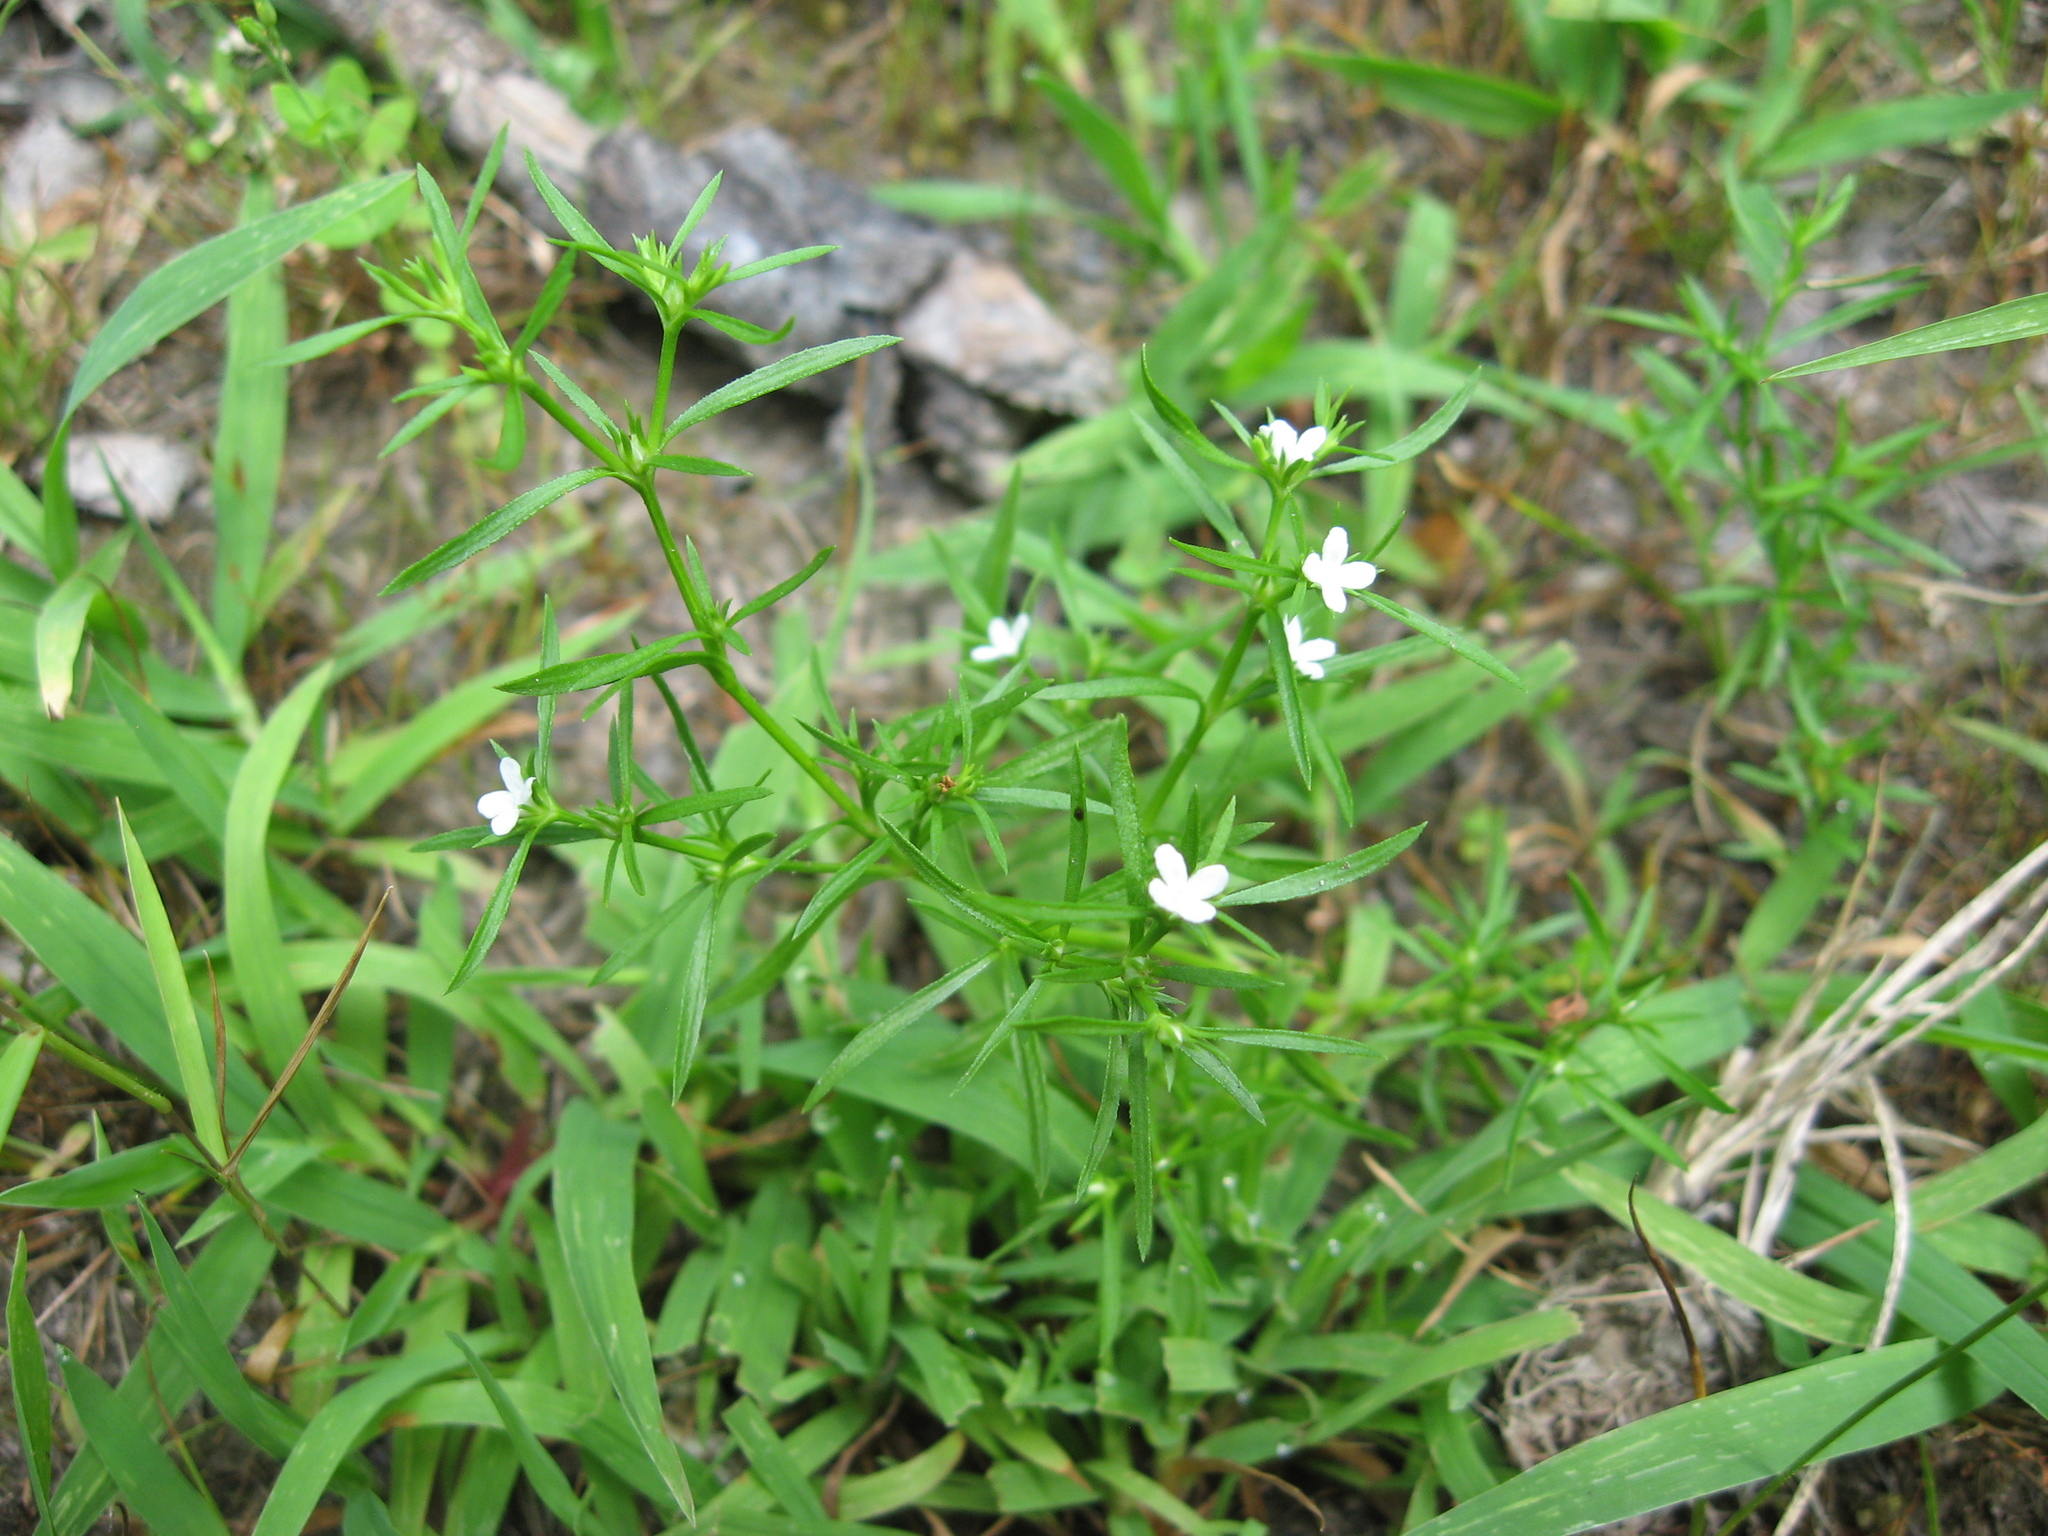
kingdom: Plantae
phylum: Tracheophyta
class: Magnoliopsida
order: Lamiales
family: Tetrachondraceae
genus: Polypremum
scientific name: Polypremum procumbens
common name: Juniper-leaf
